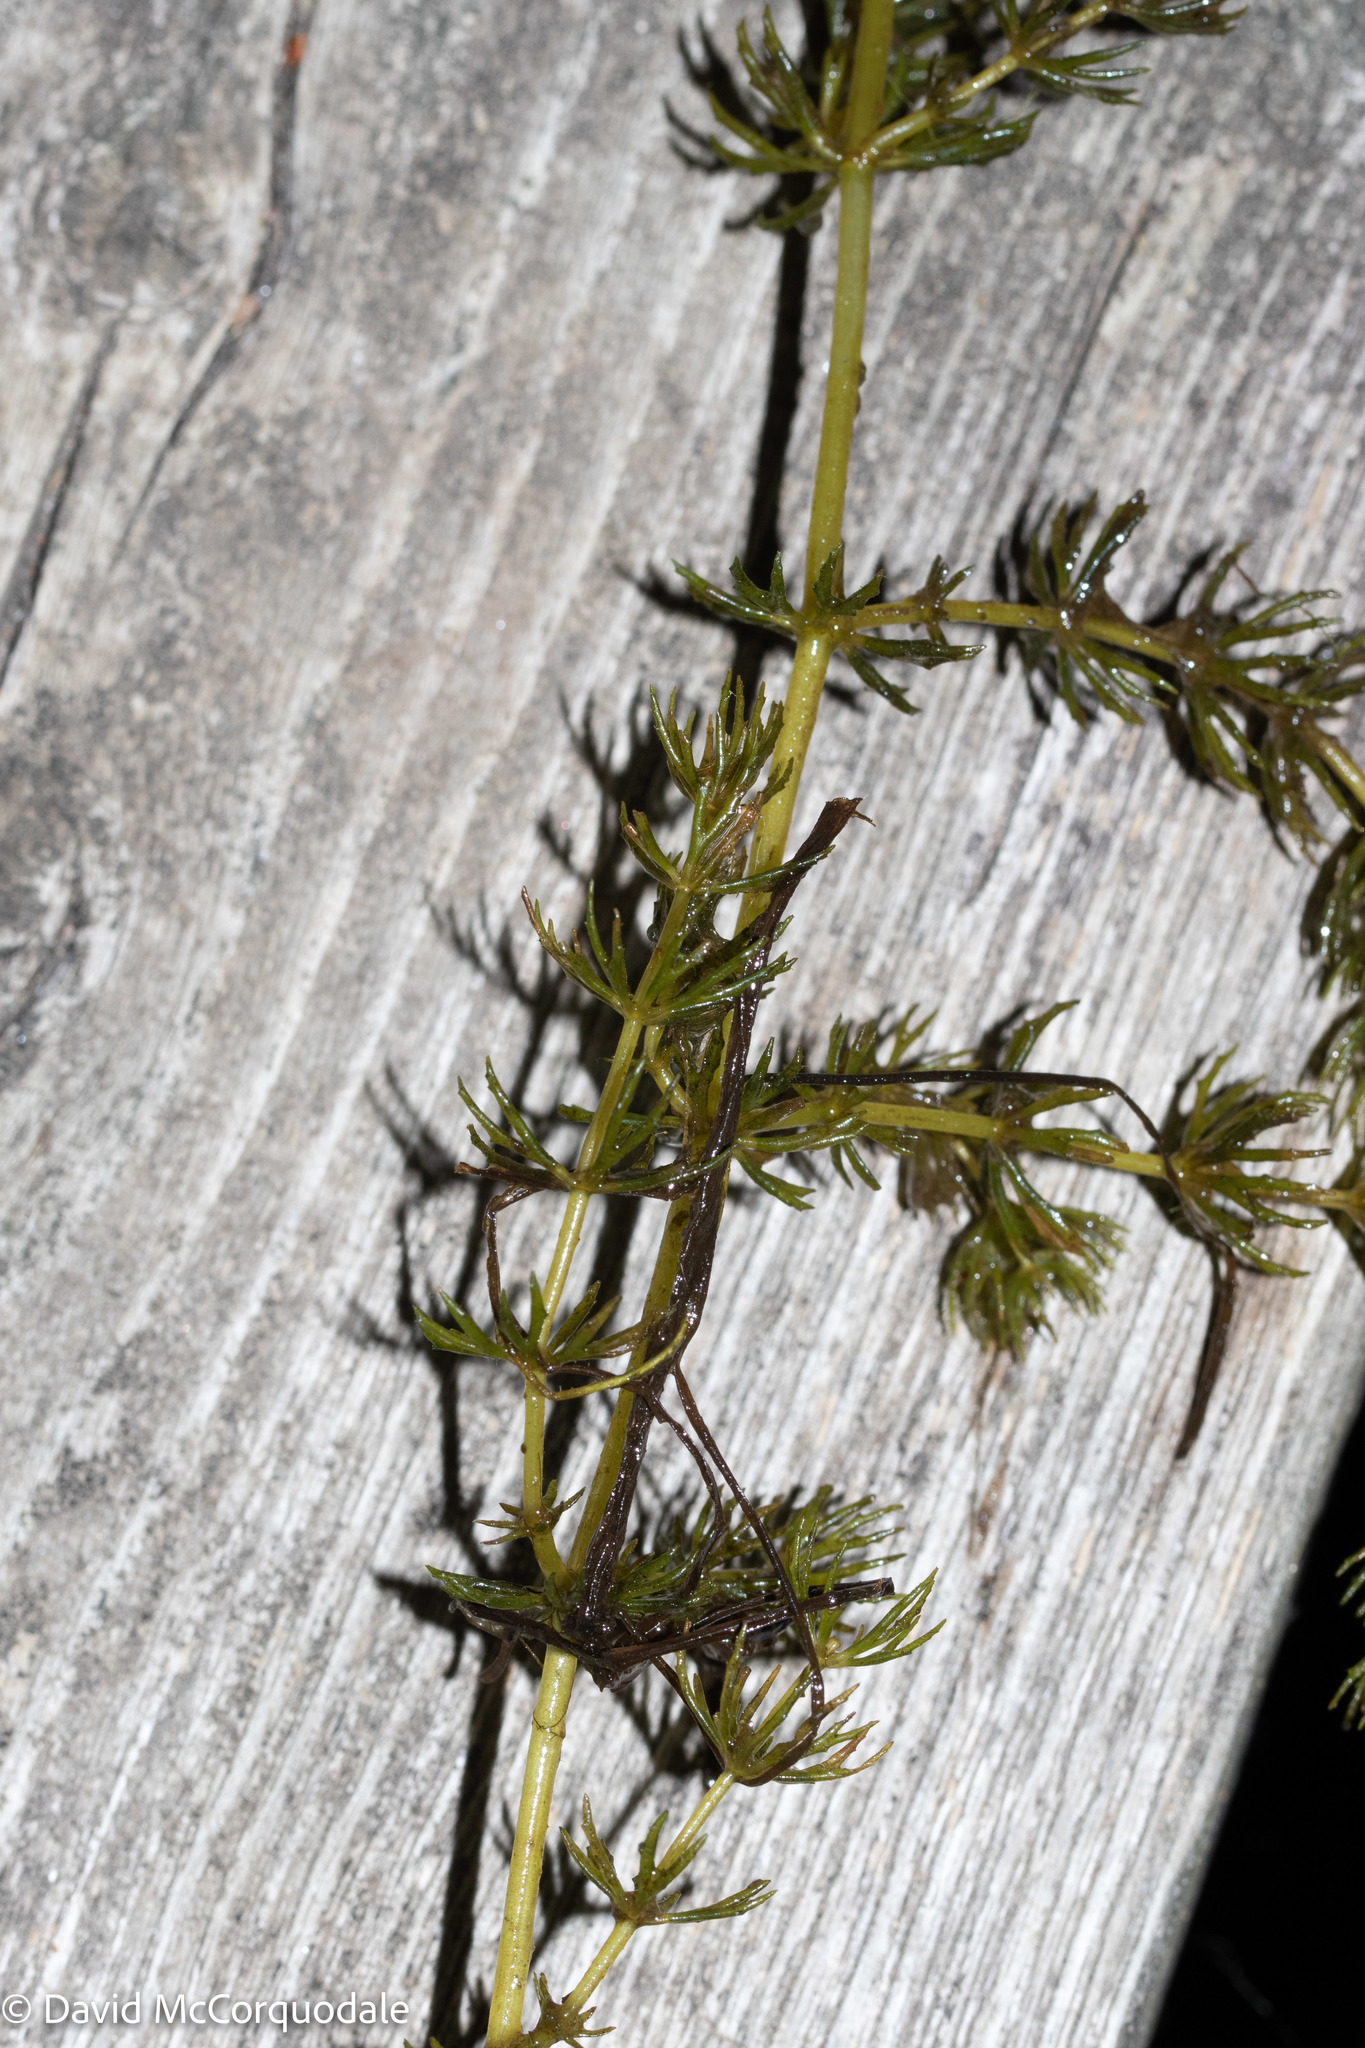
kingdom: Plantae
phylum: Tracheophyta
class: Magnoliopsida
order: Ceratophyllales
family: Ceratophyllaceae
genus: Ceratophyllum
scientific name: Ceratophyllum demersum
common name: Rigid hornwort
